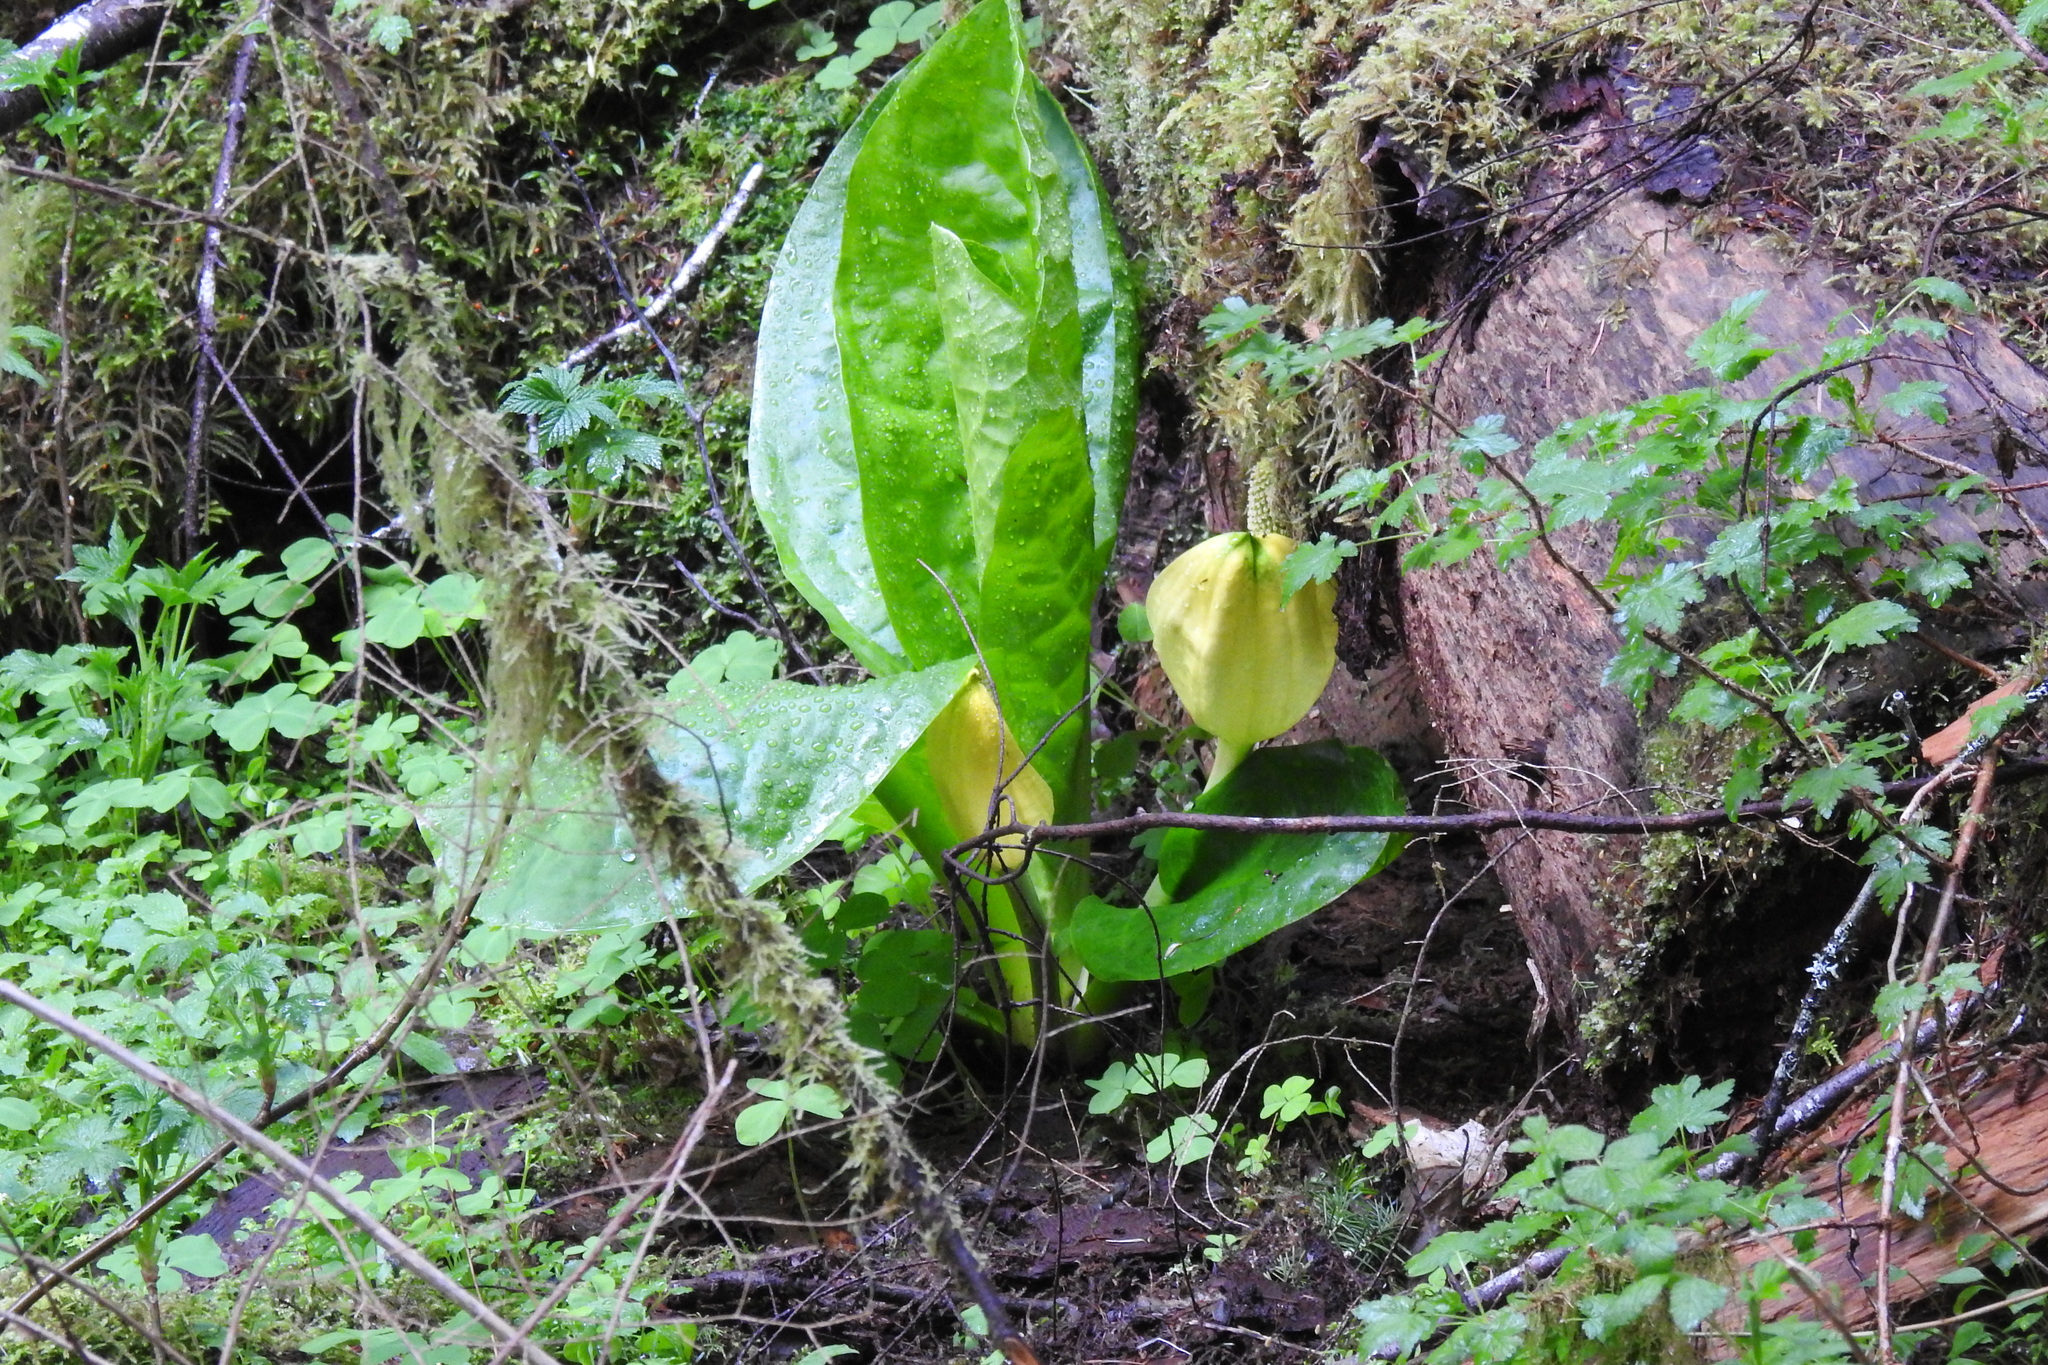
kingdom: Plantae
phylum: Tracheophyta
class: Liliopsida
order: Alismatales
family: Araceae
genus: Lysichiton
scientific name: Lysichiton americanus
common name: American skunk cabbage
